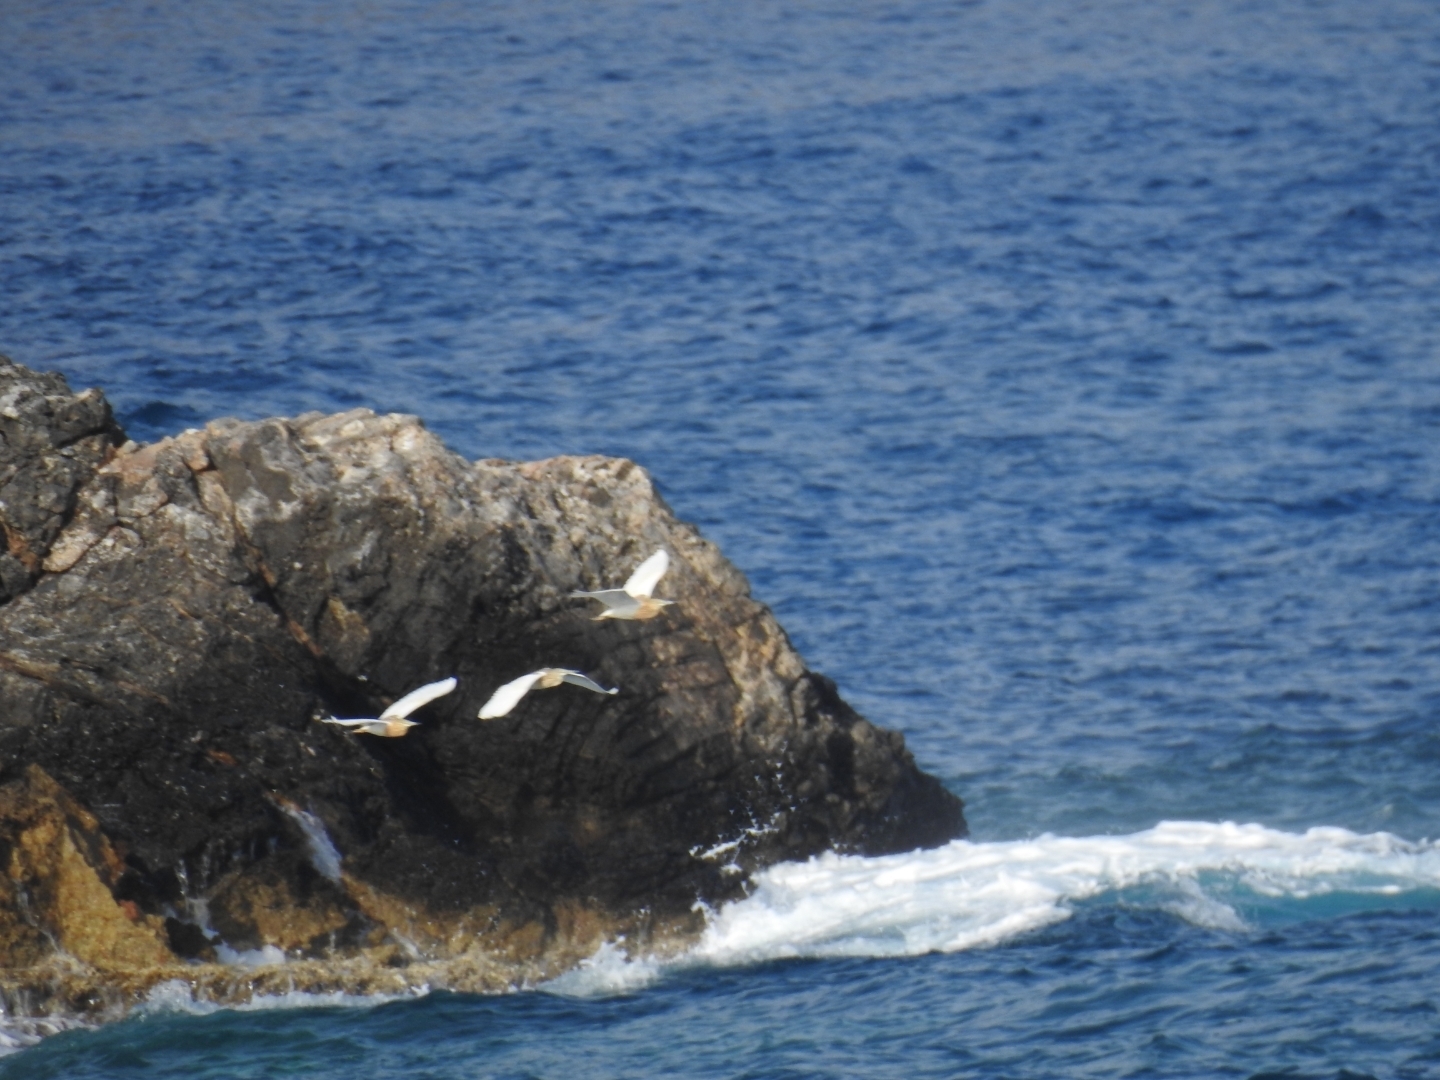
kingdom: Animalia
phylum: Chordata
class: Aves
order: Pelecaniformes
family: Ardeidae
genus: Ardeola
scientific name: Ardeola ralloides
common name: Squacco heron
